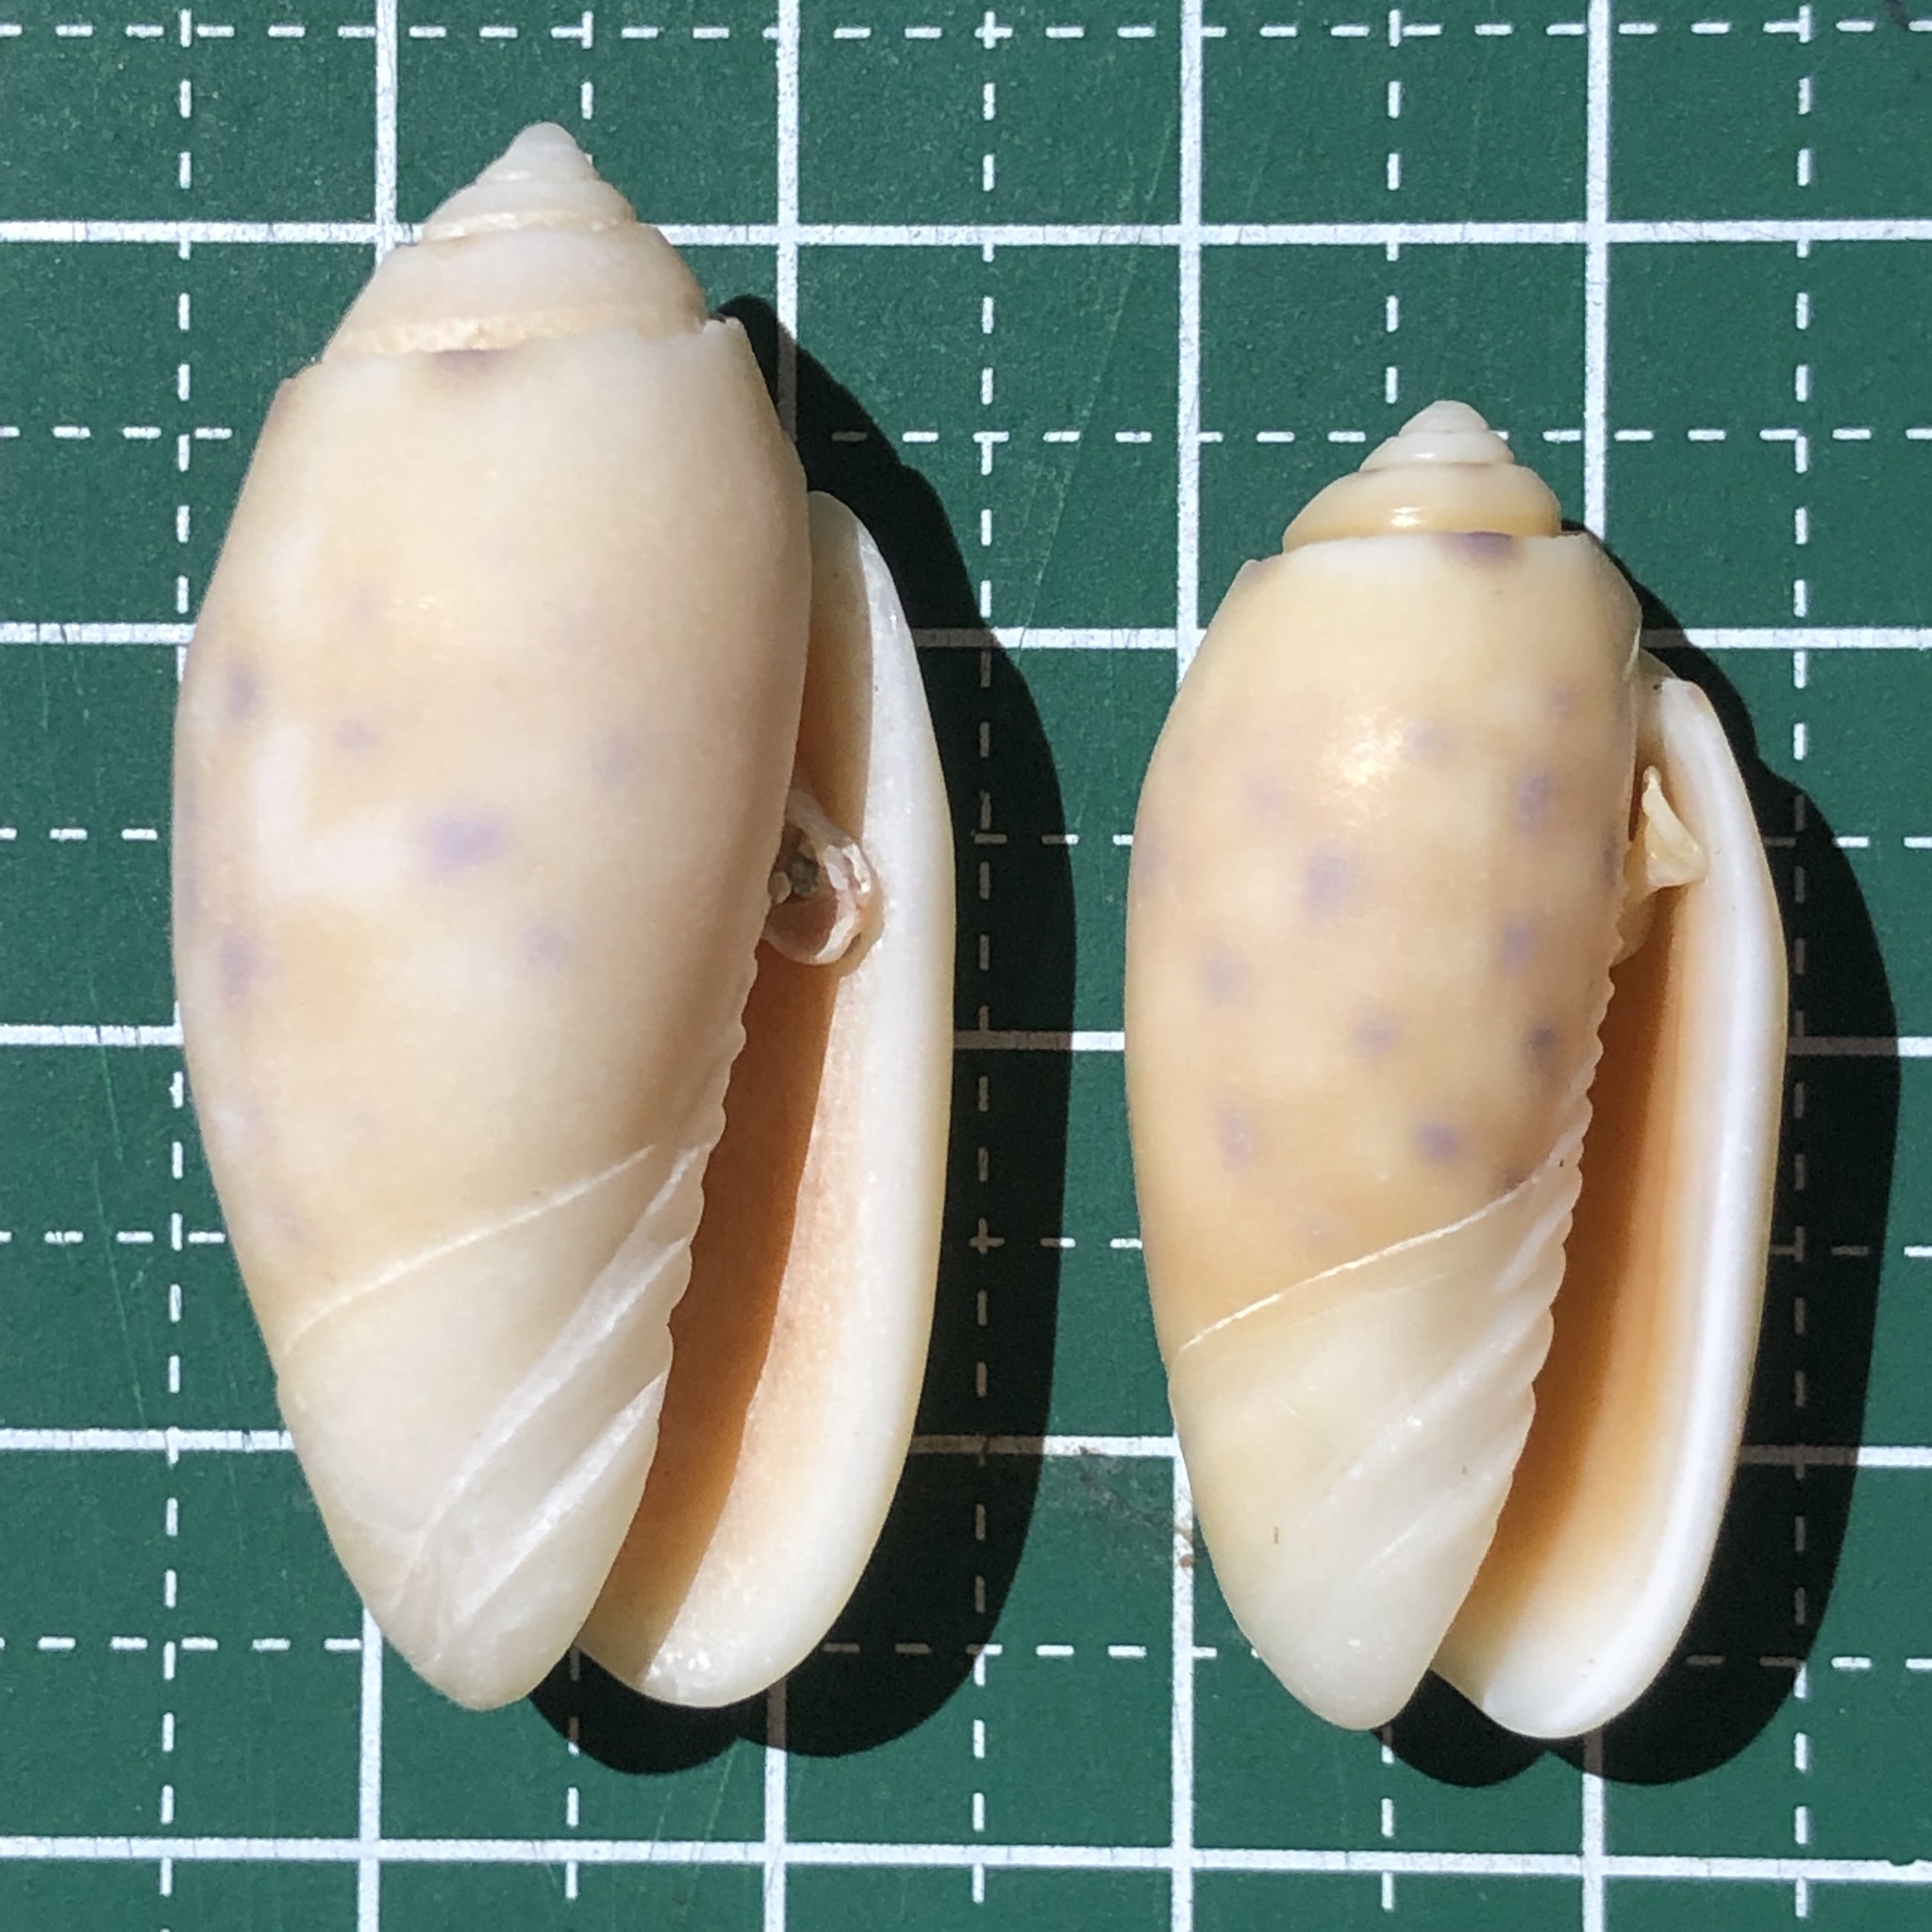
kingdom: Animalia
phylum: Mollusca
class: Gastropoda
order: Neogastropoda
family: Olividae
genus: Oliva
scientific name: Oliva amethystina
